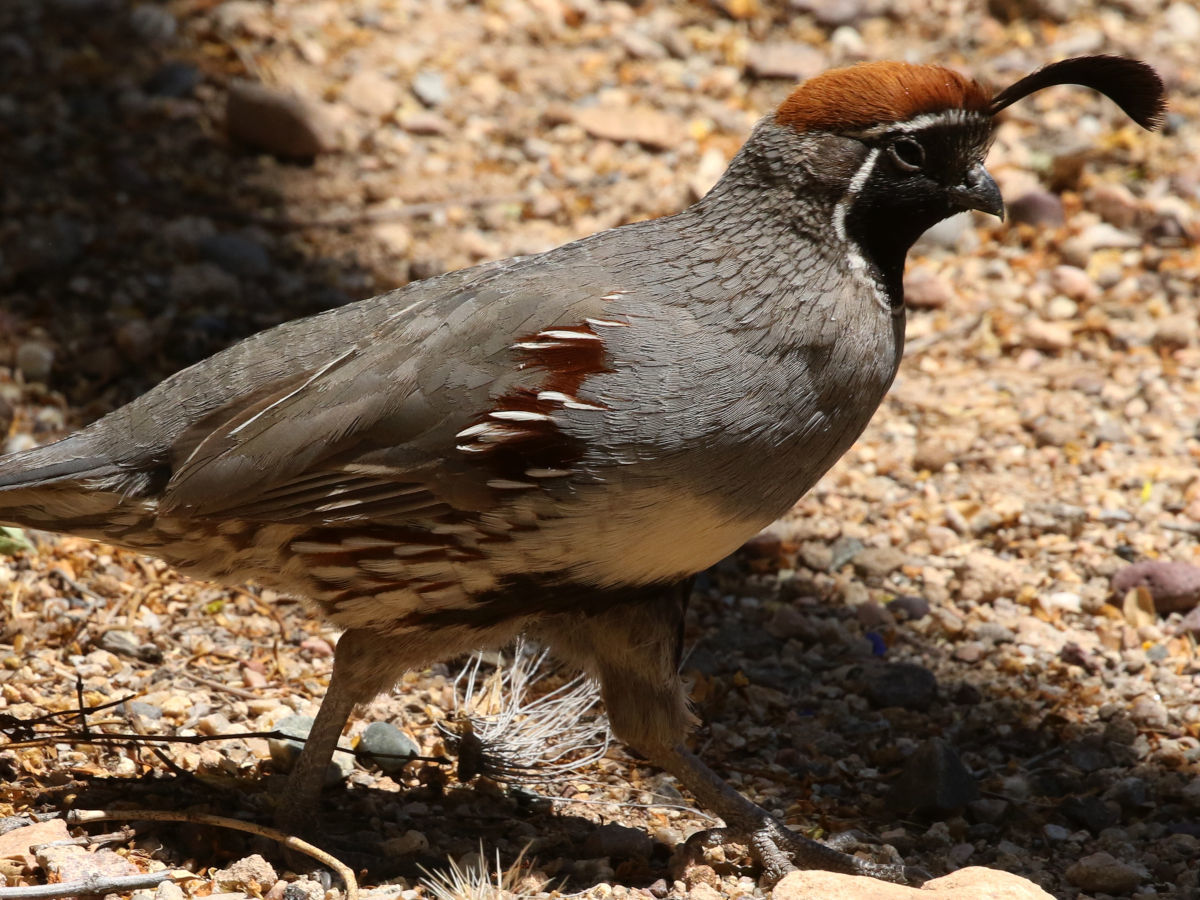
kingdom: Animalia
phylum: Chordata
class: Aves
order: Galliformes
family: Odontophoridae
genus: Callipepla
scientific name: Callipepla gambelii
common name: Gambel's quail
